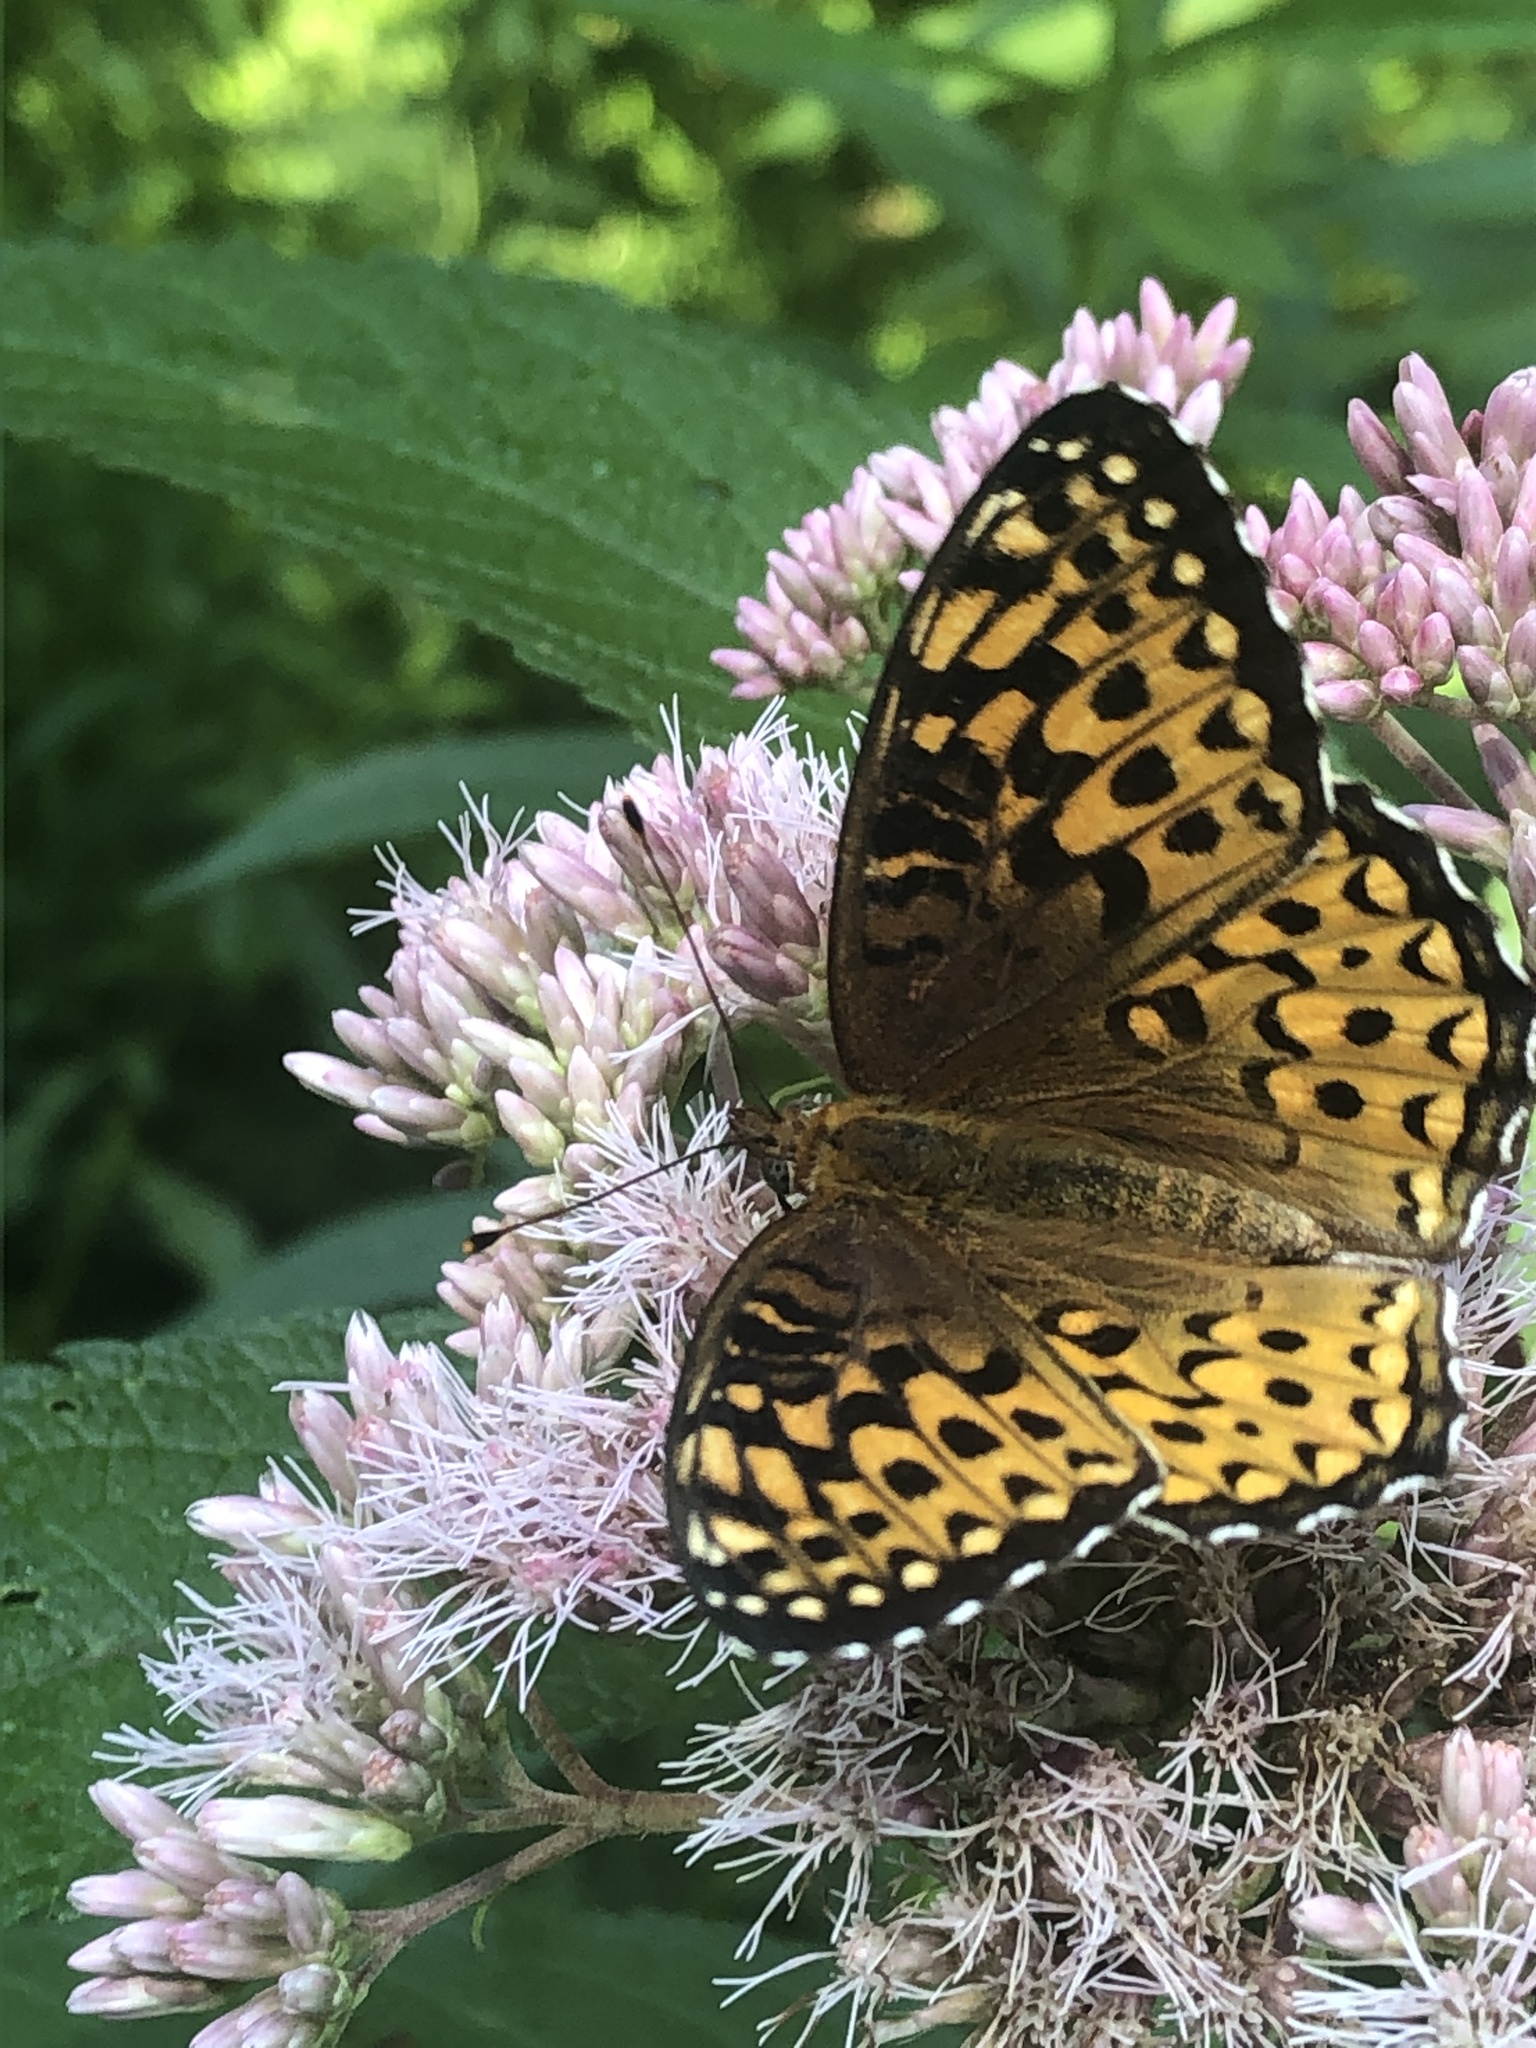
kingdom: Animalia
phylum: Arthropoda
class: Insecta
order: Lepidoptera
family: Nymphalidae
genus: Speyeria
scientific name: Speyeria atlantis
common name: Atlantis fritillary
